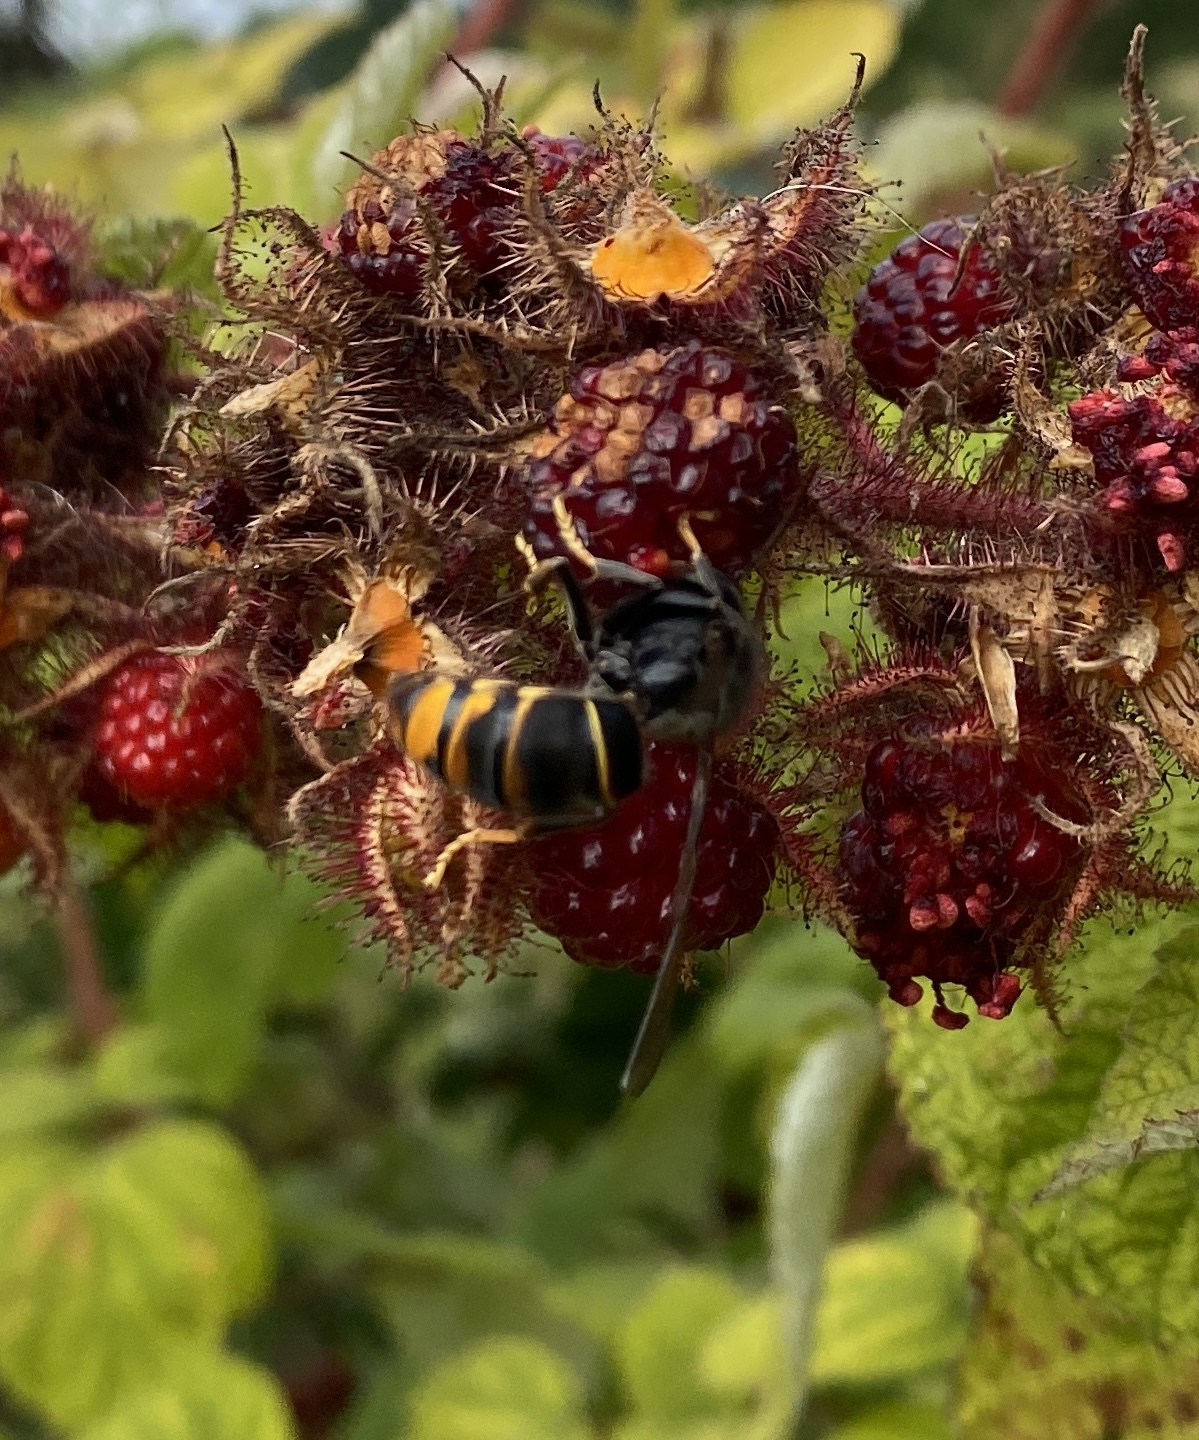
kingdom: Animalia
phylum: Arthropoda
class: Insecta
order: Hymenoptera
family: Vespidae
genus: Vespa
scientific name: Vespa velutina
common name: Asian hornet
